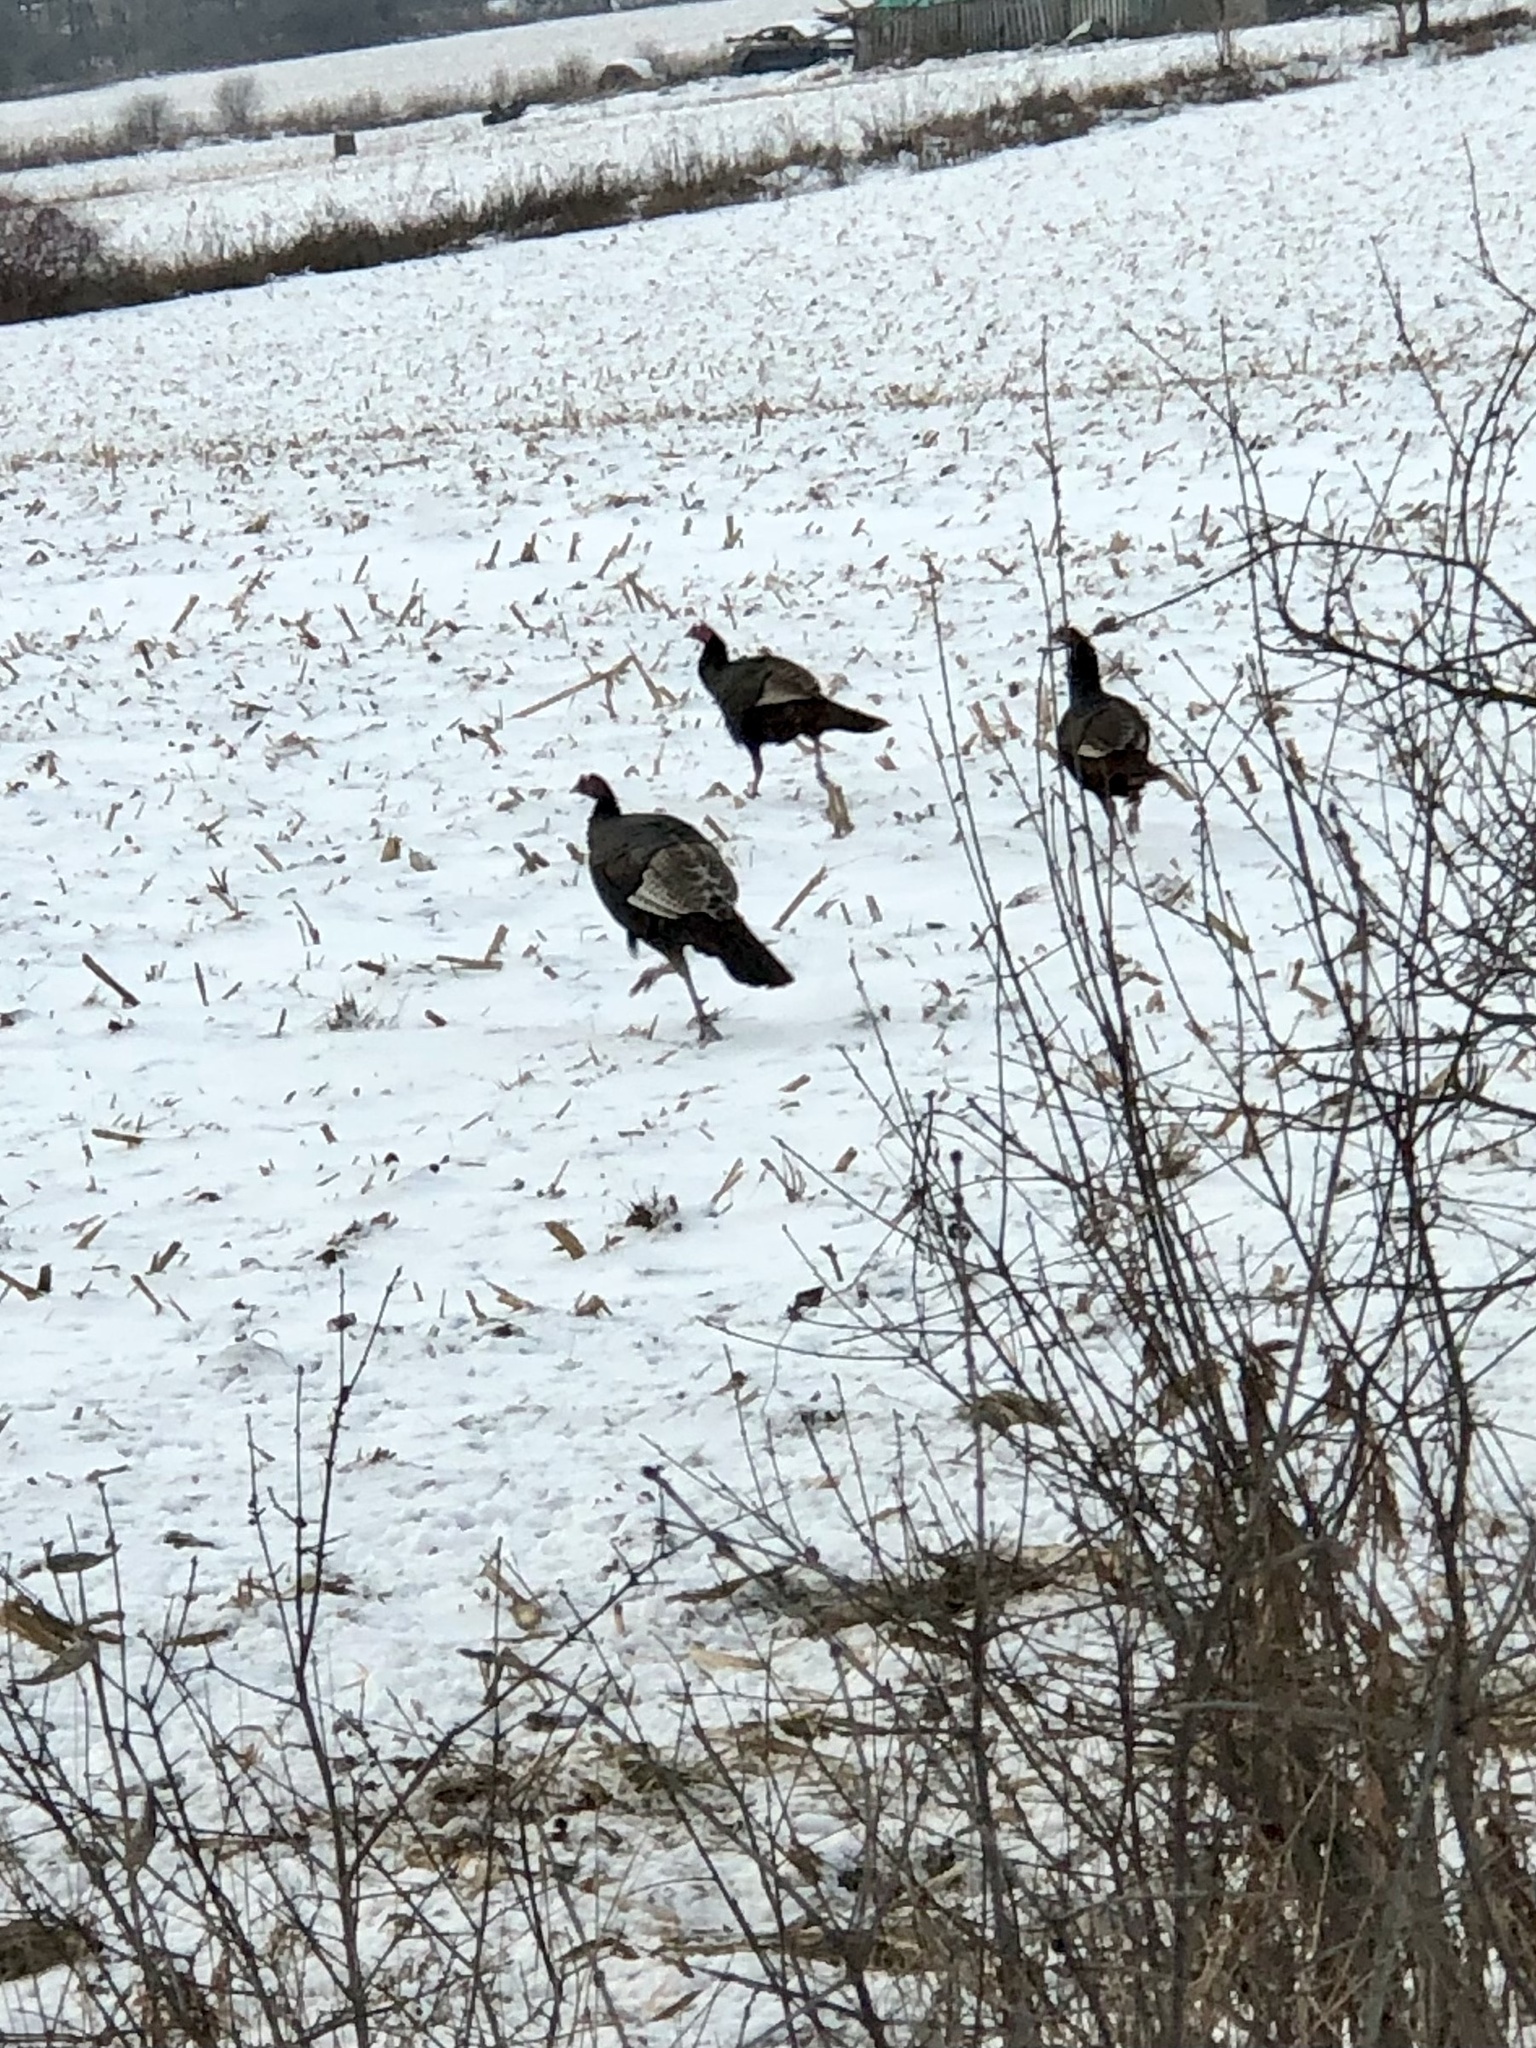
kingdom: Animalia
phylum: Chordata
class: Aves
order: Galliformes
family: Phasianidae
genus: Meleagris
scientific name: Meleagris gallopavo
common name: Wild turkey
